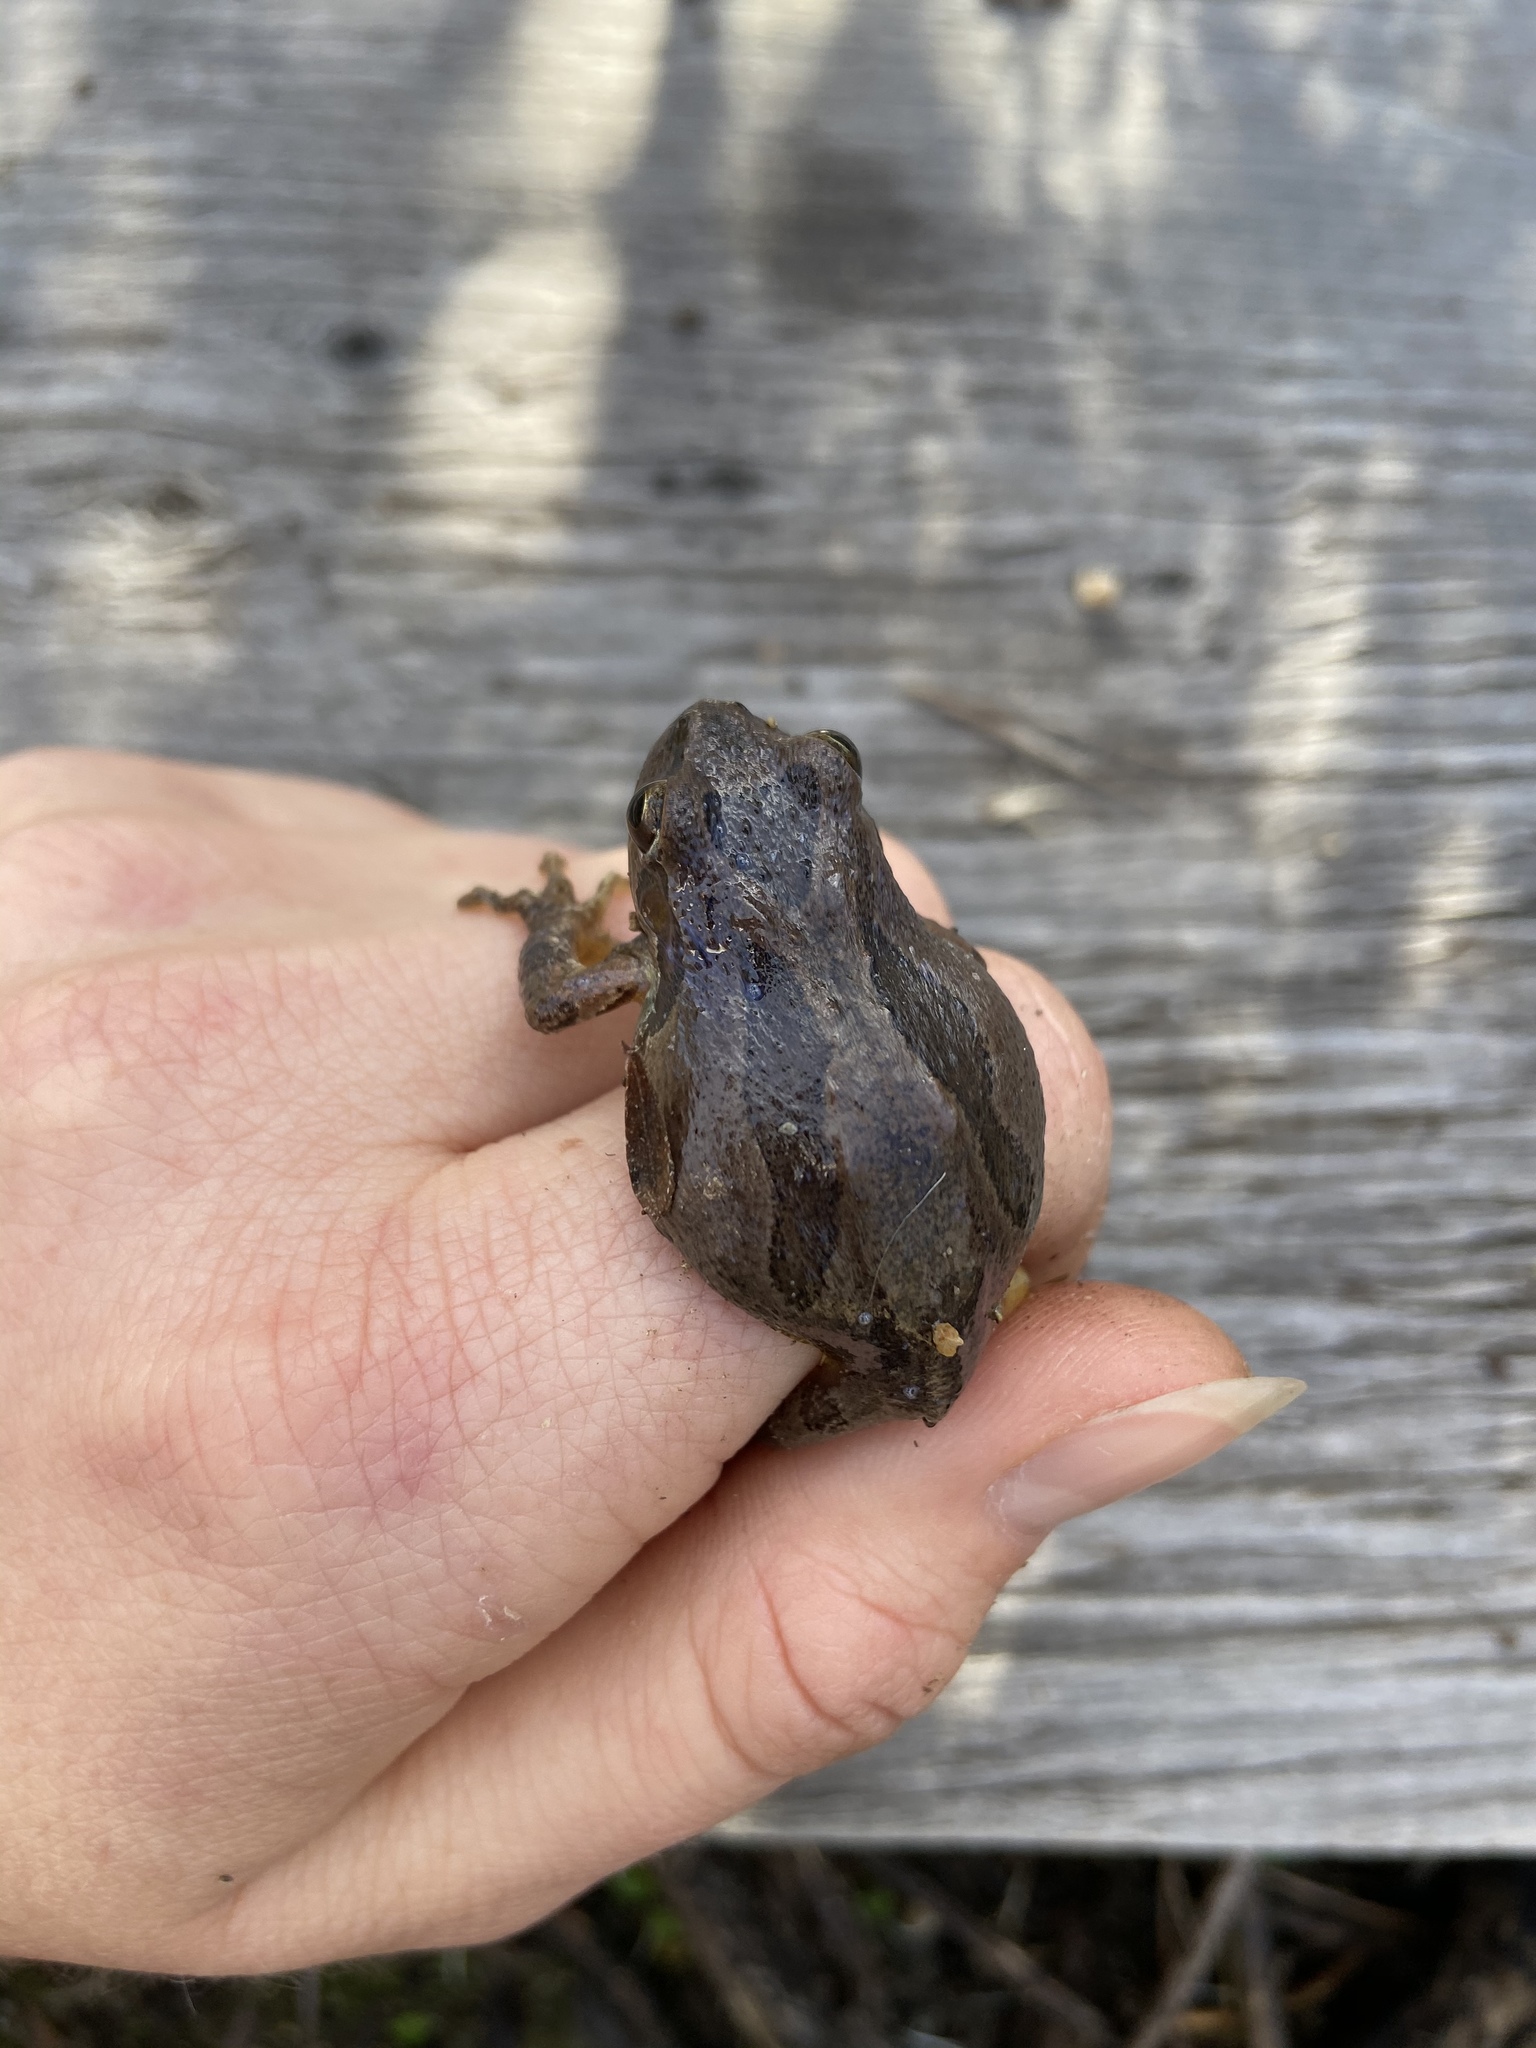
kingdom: Animalia
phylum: Chordata
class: Amphibia
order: Anura
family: Hylidae
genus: Pseudacris
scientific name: Pseudacris regilla
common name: Pacific chorus frog
